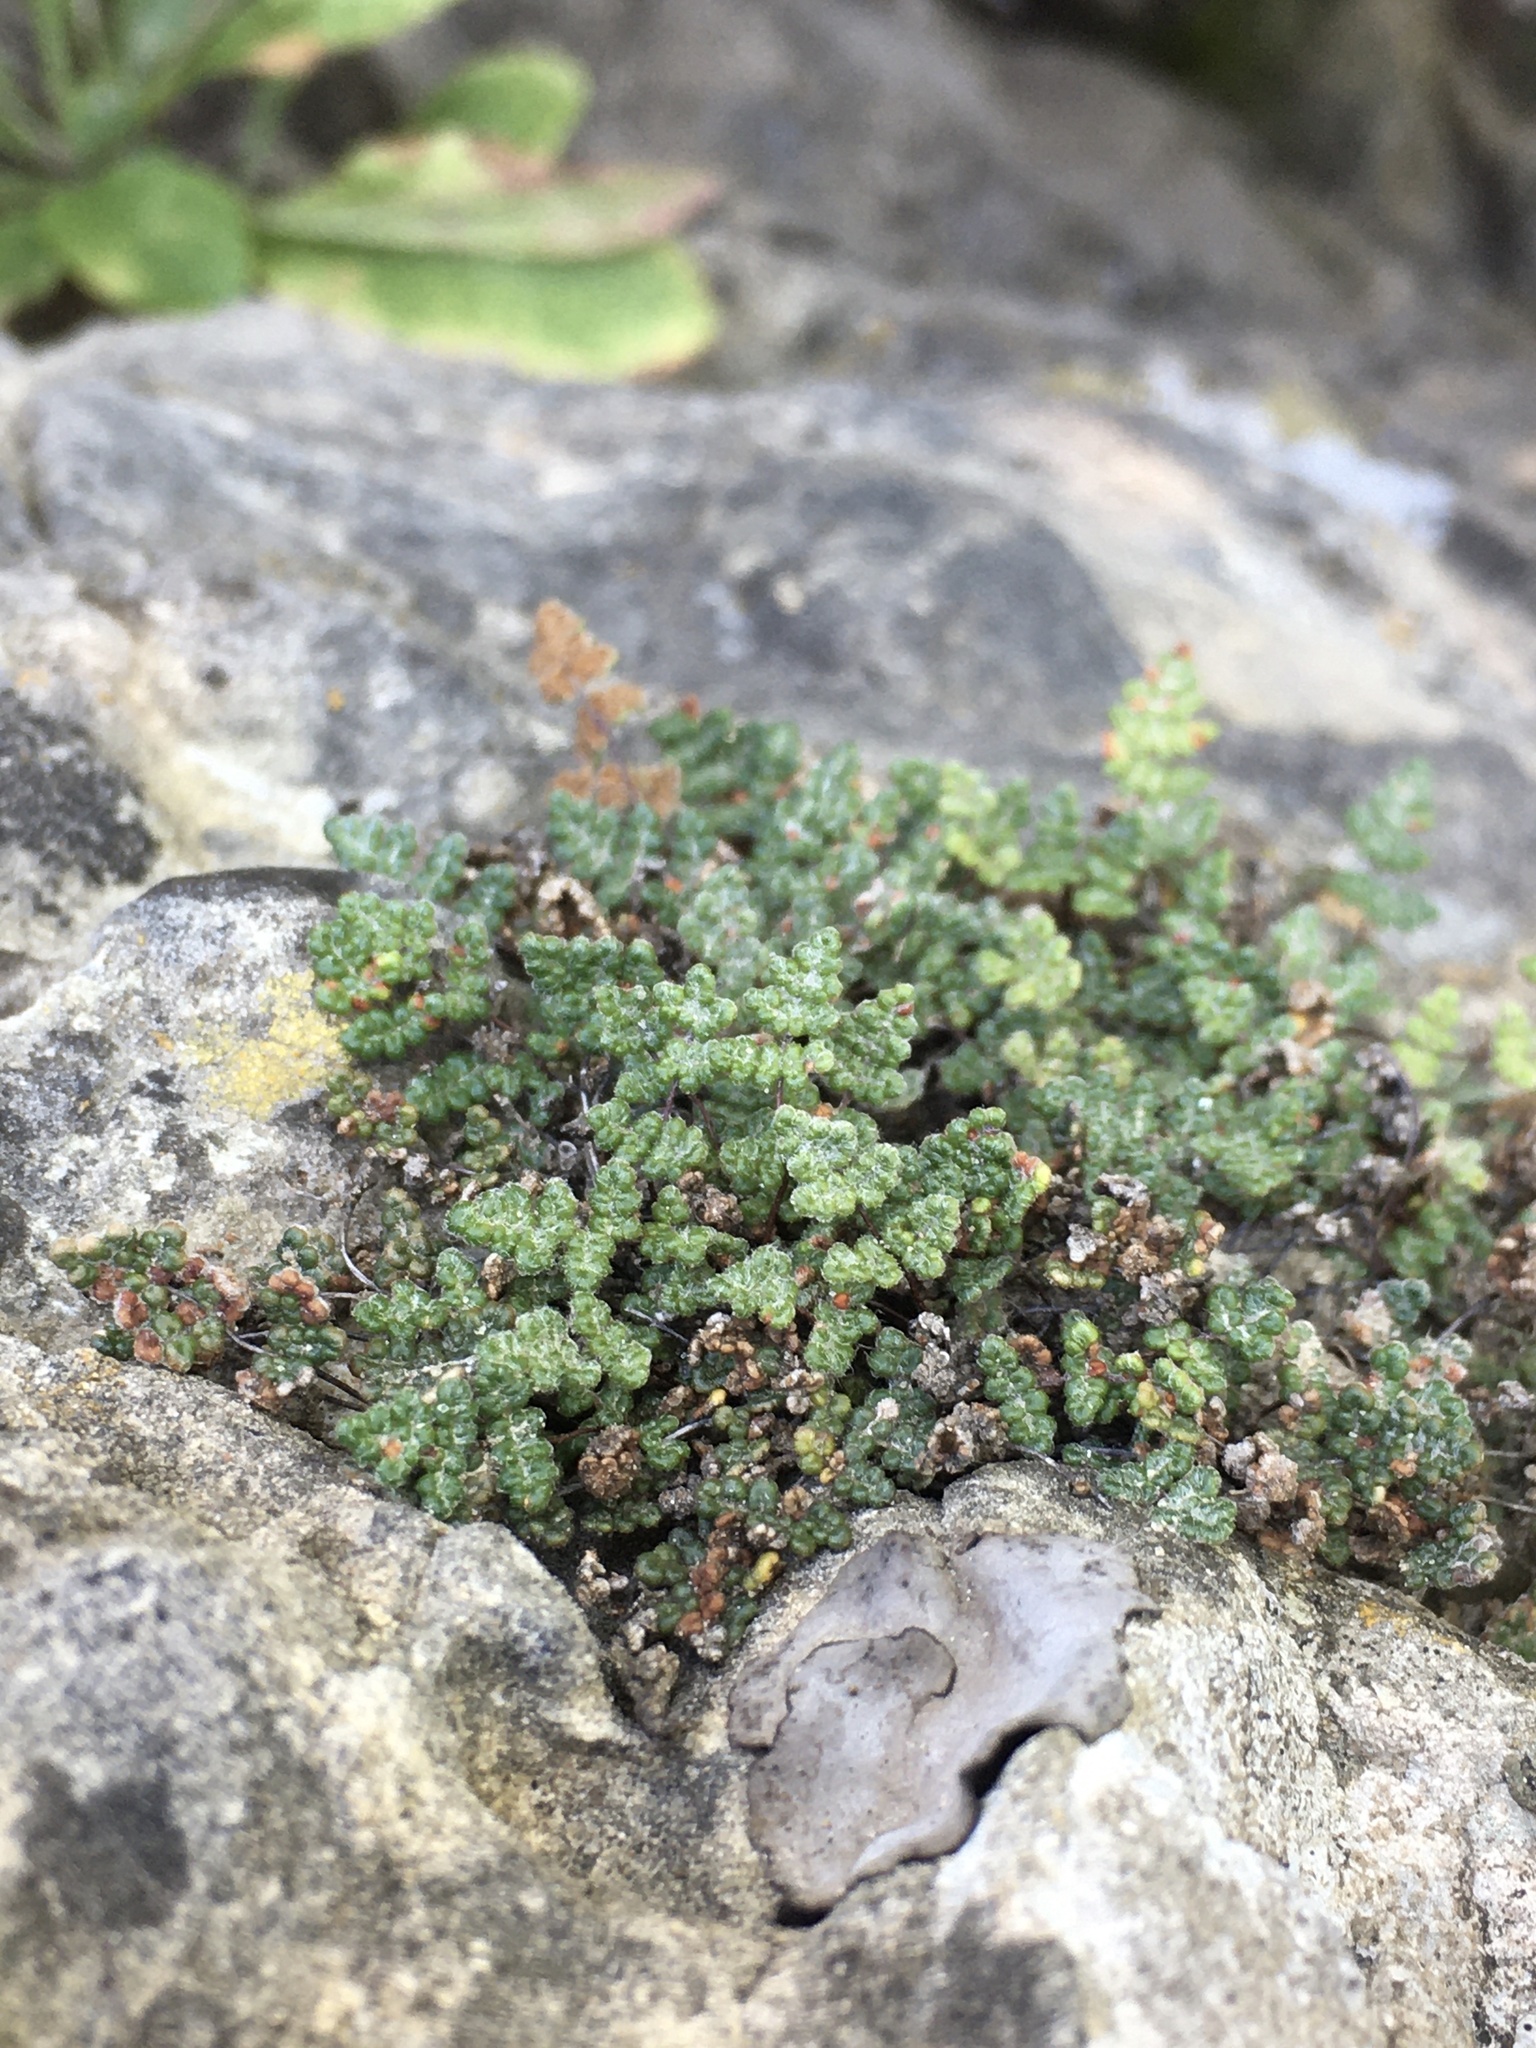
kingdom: Plantae
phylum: Tracheophyta
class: Polypodiopsida
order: Polypodiales
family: Pteridaceae
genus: Myriopteris
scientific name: Myriopteris gracilis
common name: Fee's lip fern
